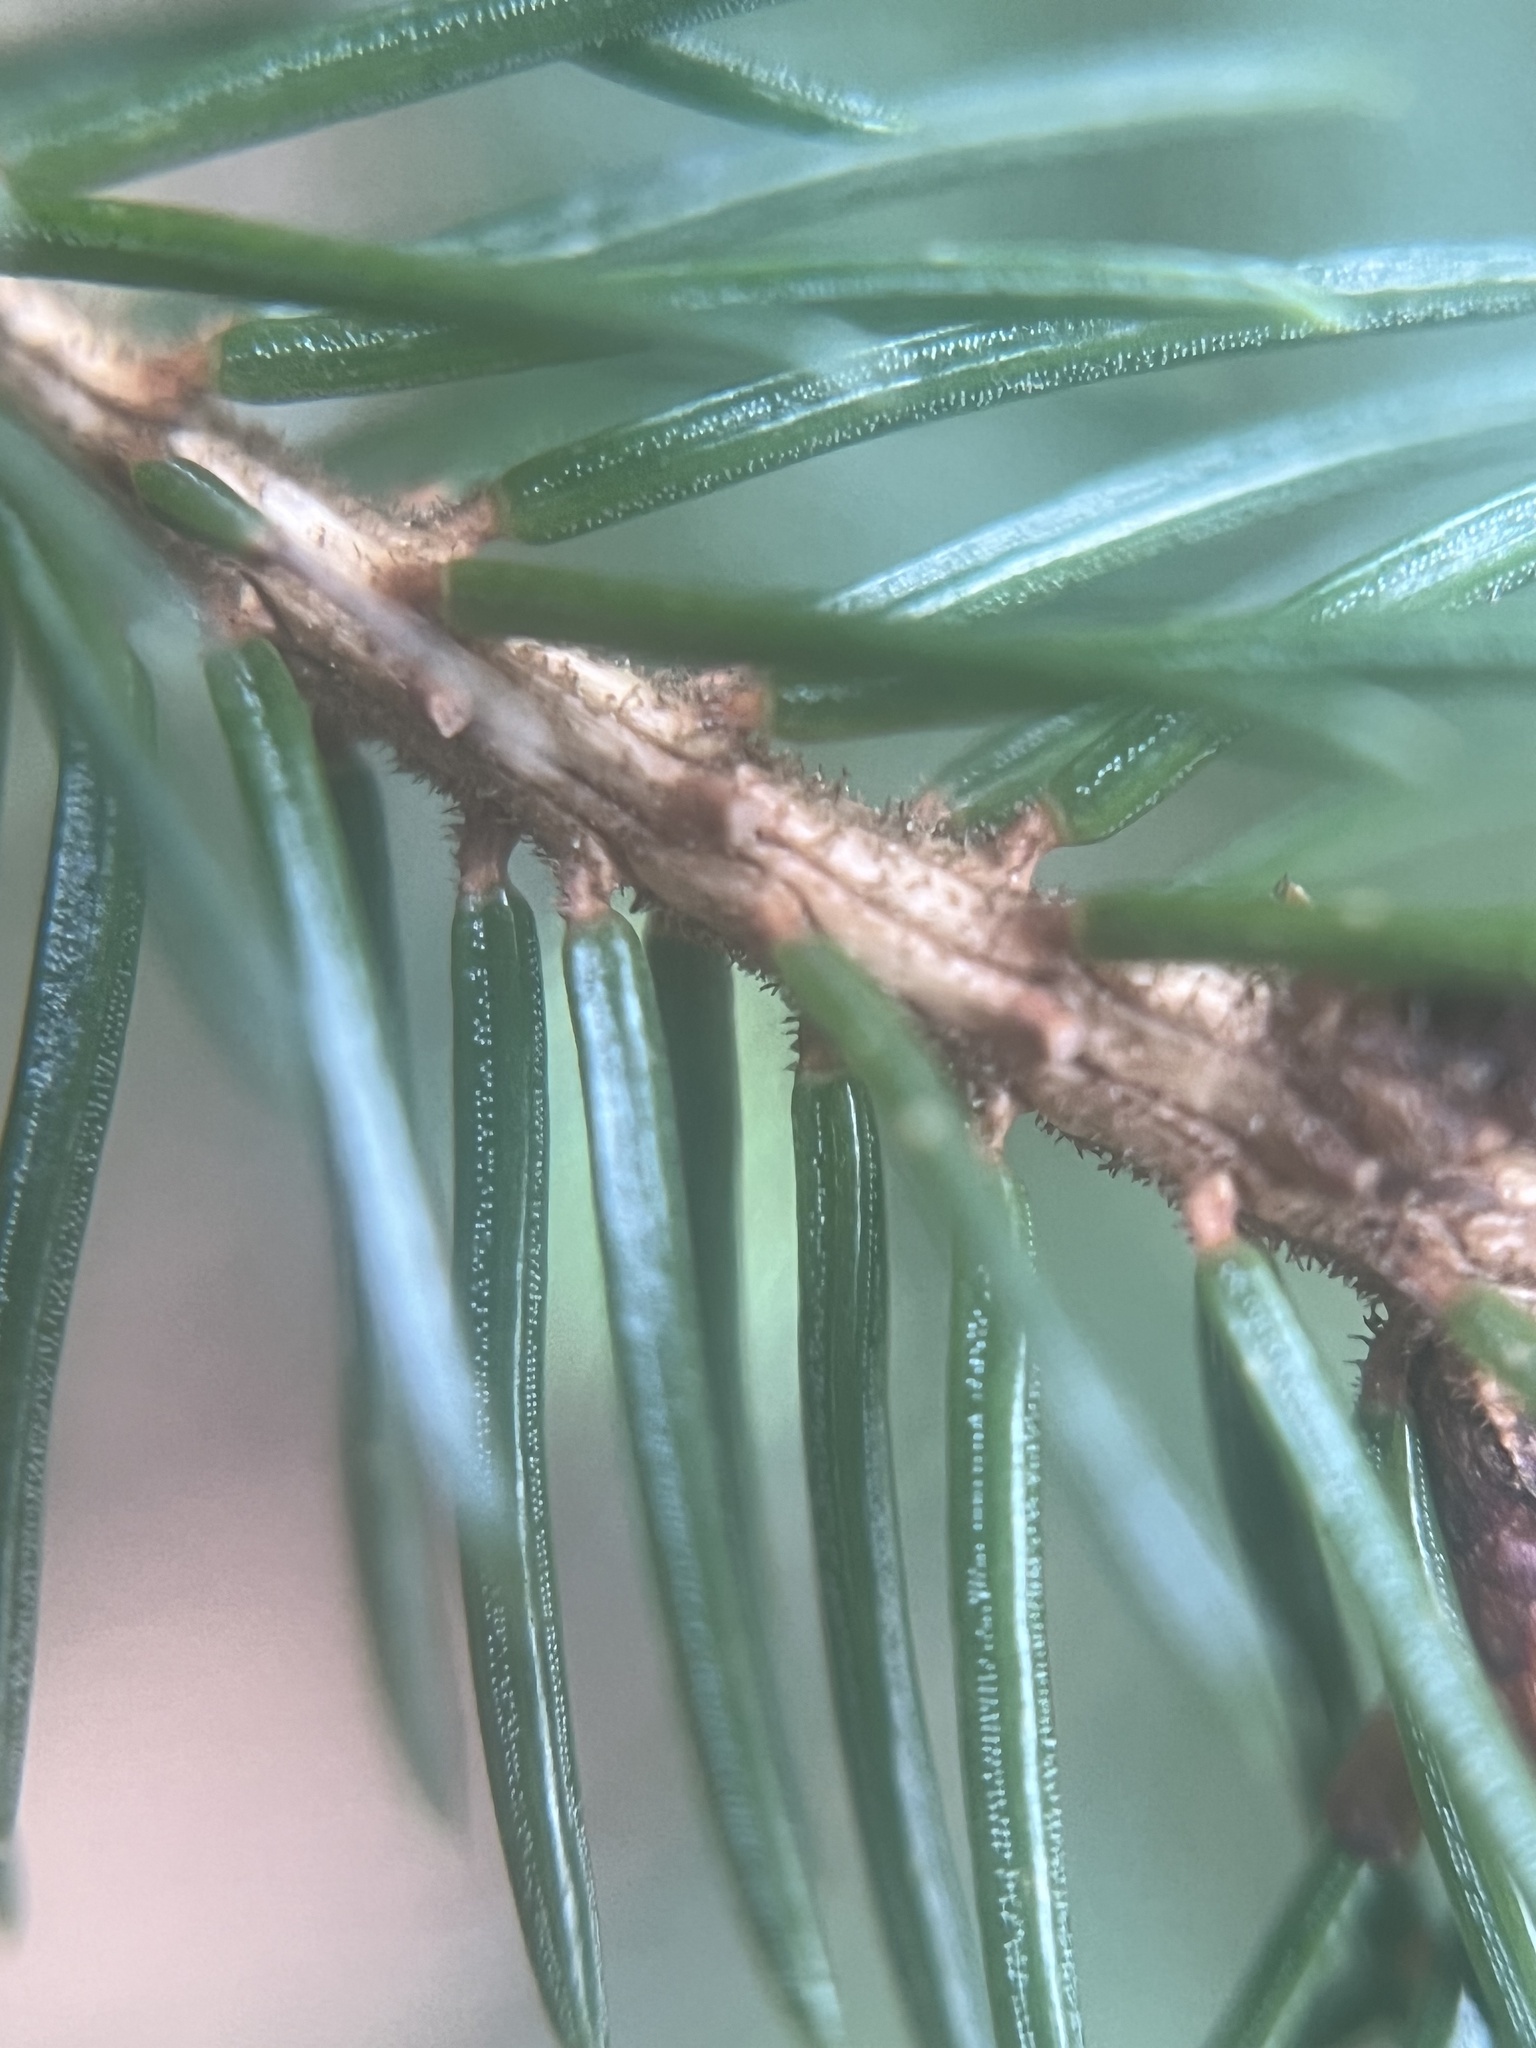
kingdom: Plantae
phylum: Tracheophyta
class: Pinopsida
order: Pinales
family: Pinaceae
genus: Picea
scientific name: Picea rubens
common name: Red spruce
